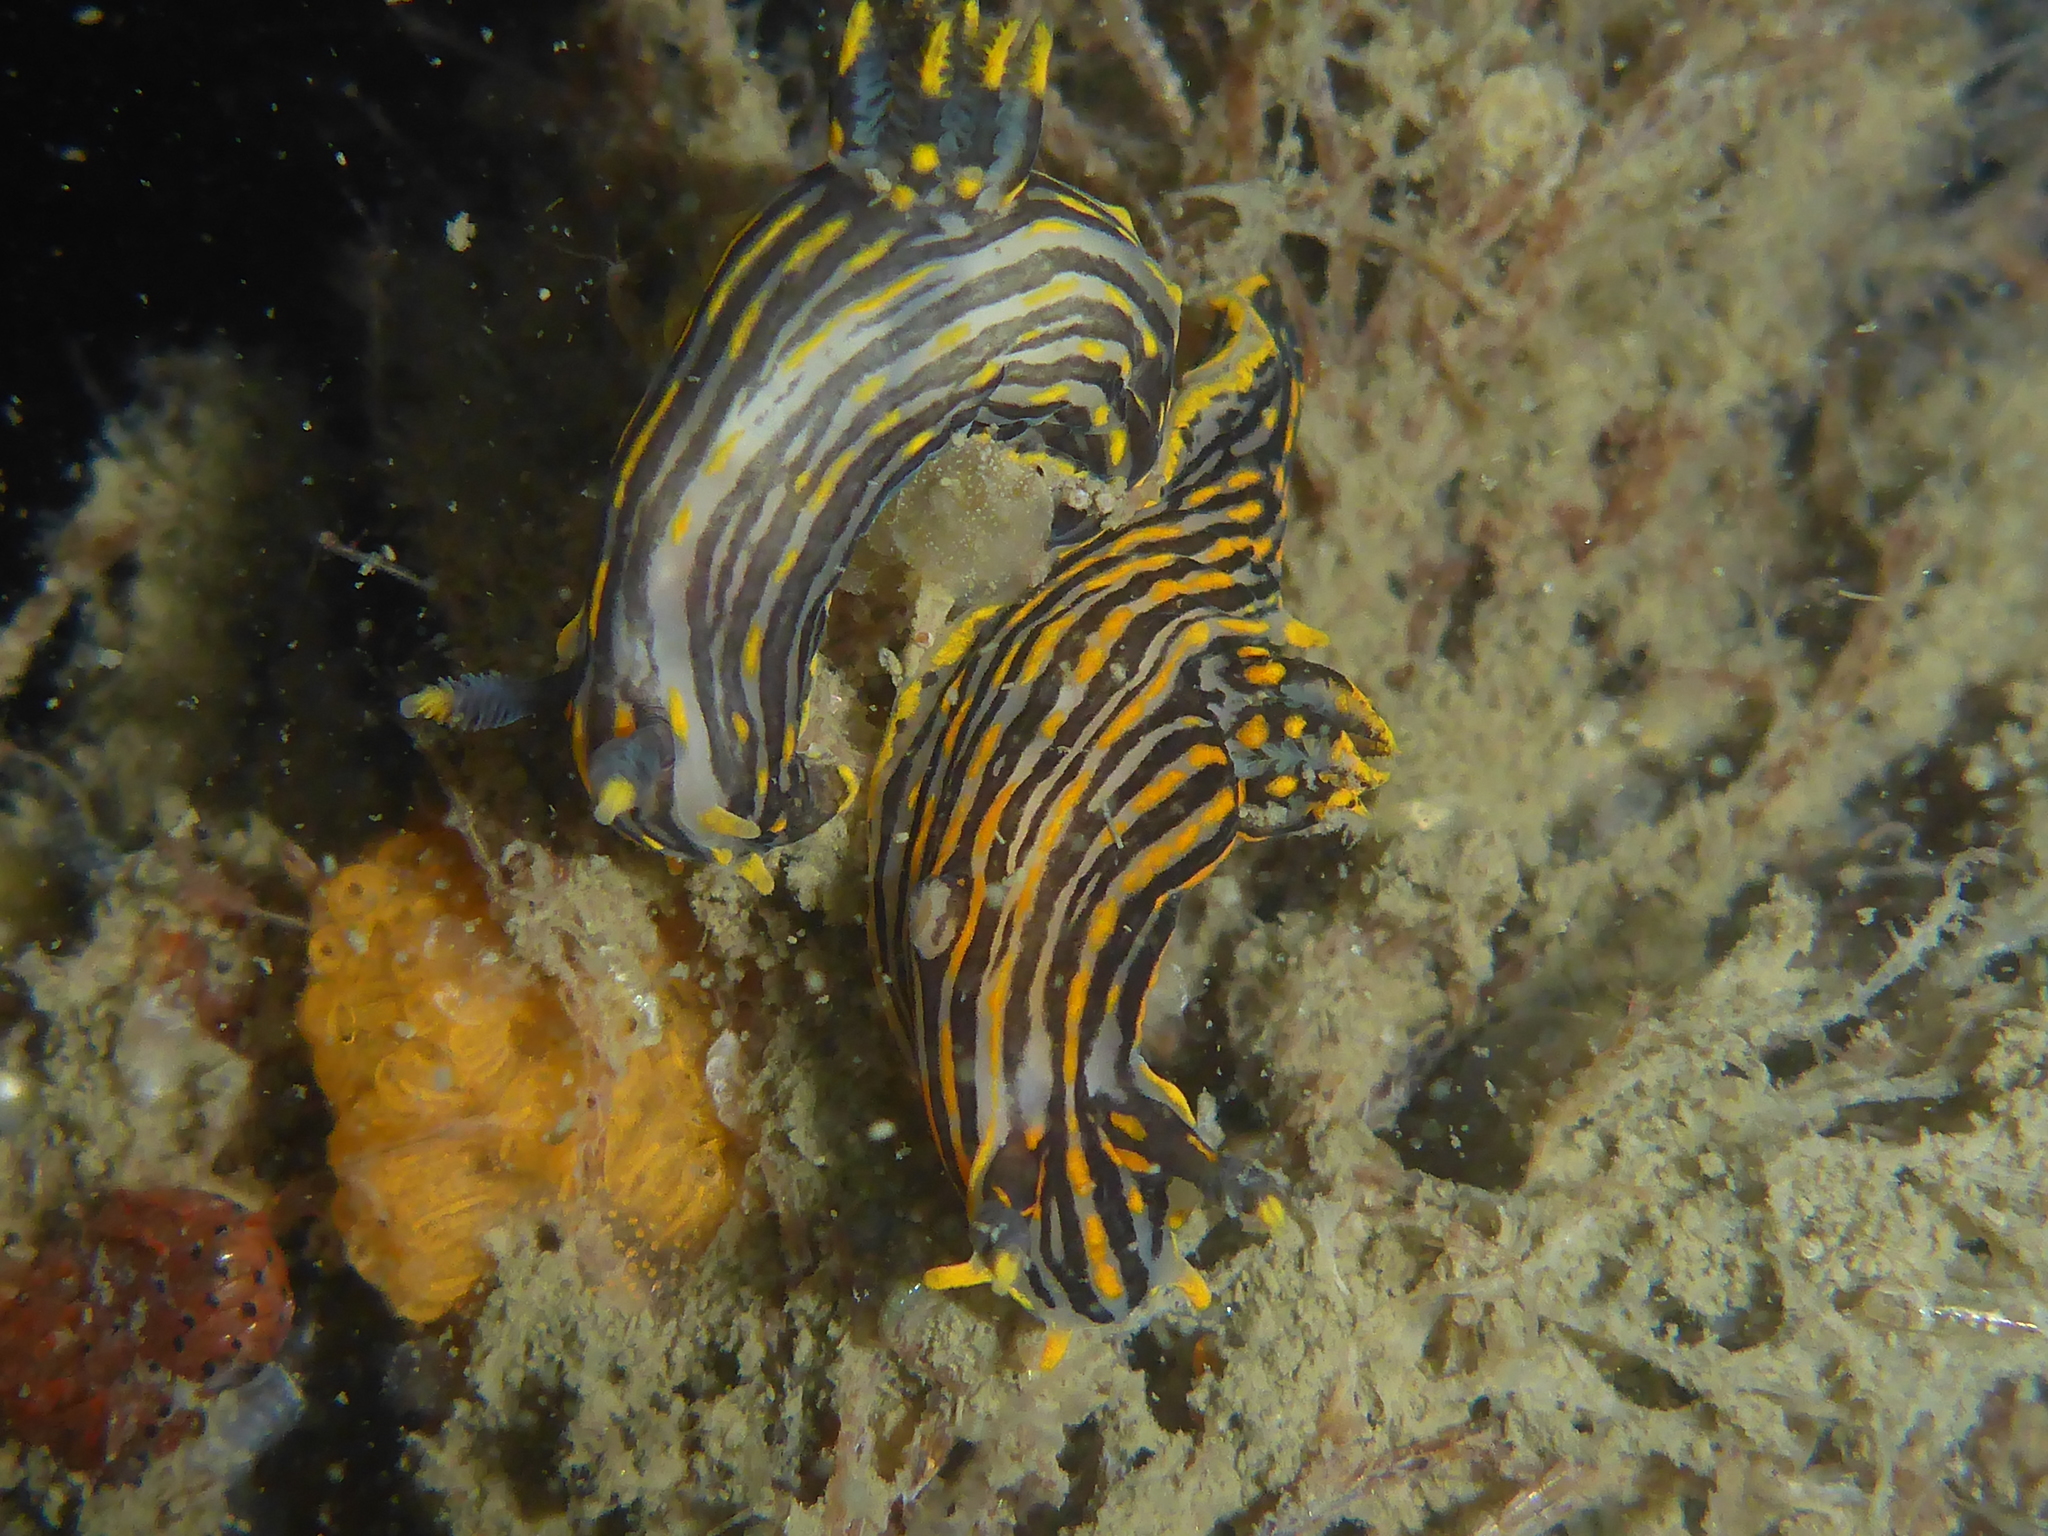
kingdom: Animalia
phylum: Mollusca
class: Gastropoda
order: Nudibranchia
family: Polyceridae
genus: Polycera
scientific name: Polycera atra
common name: Orange-spike polycera
